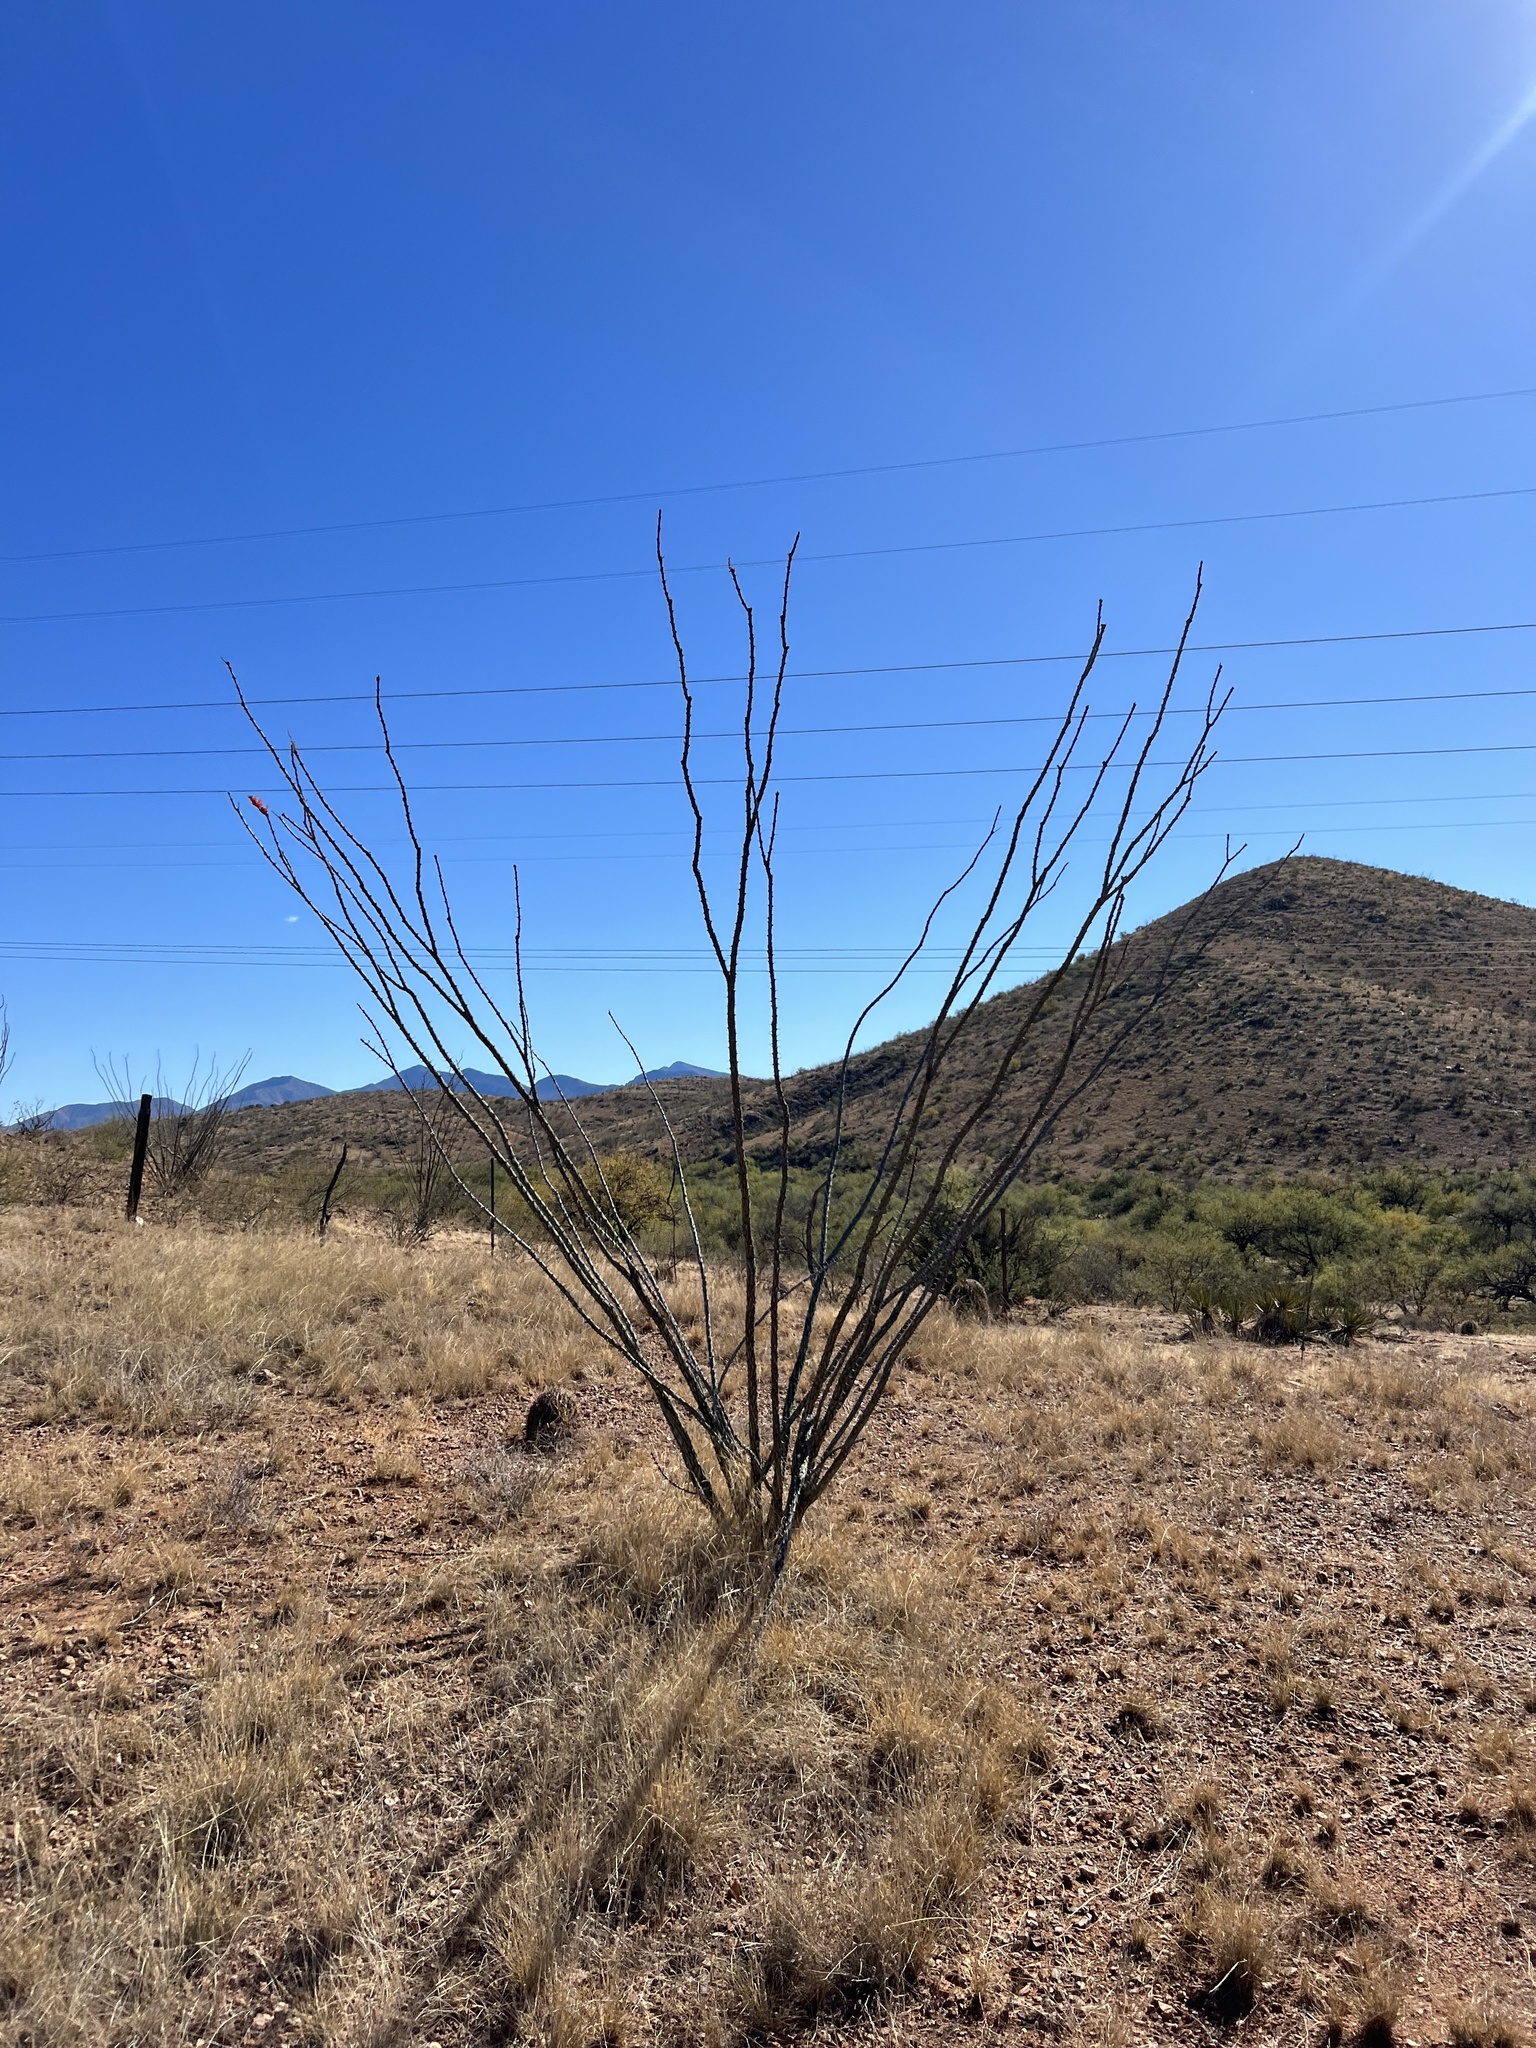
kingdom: Plantae
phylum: Tracheophyta
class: Magnoliopsida
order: Ericales
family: Fouquieriaceae
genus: Fouquieria
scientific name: Fouquieria splendens
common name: Vine-cactus
